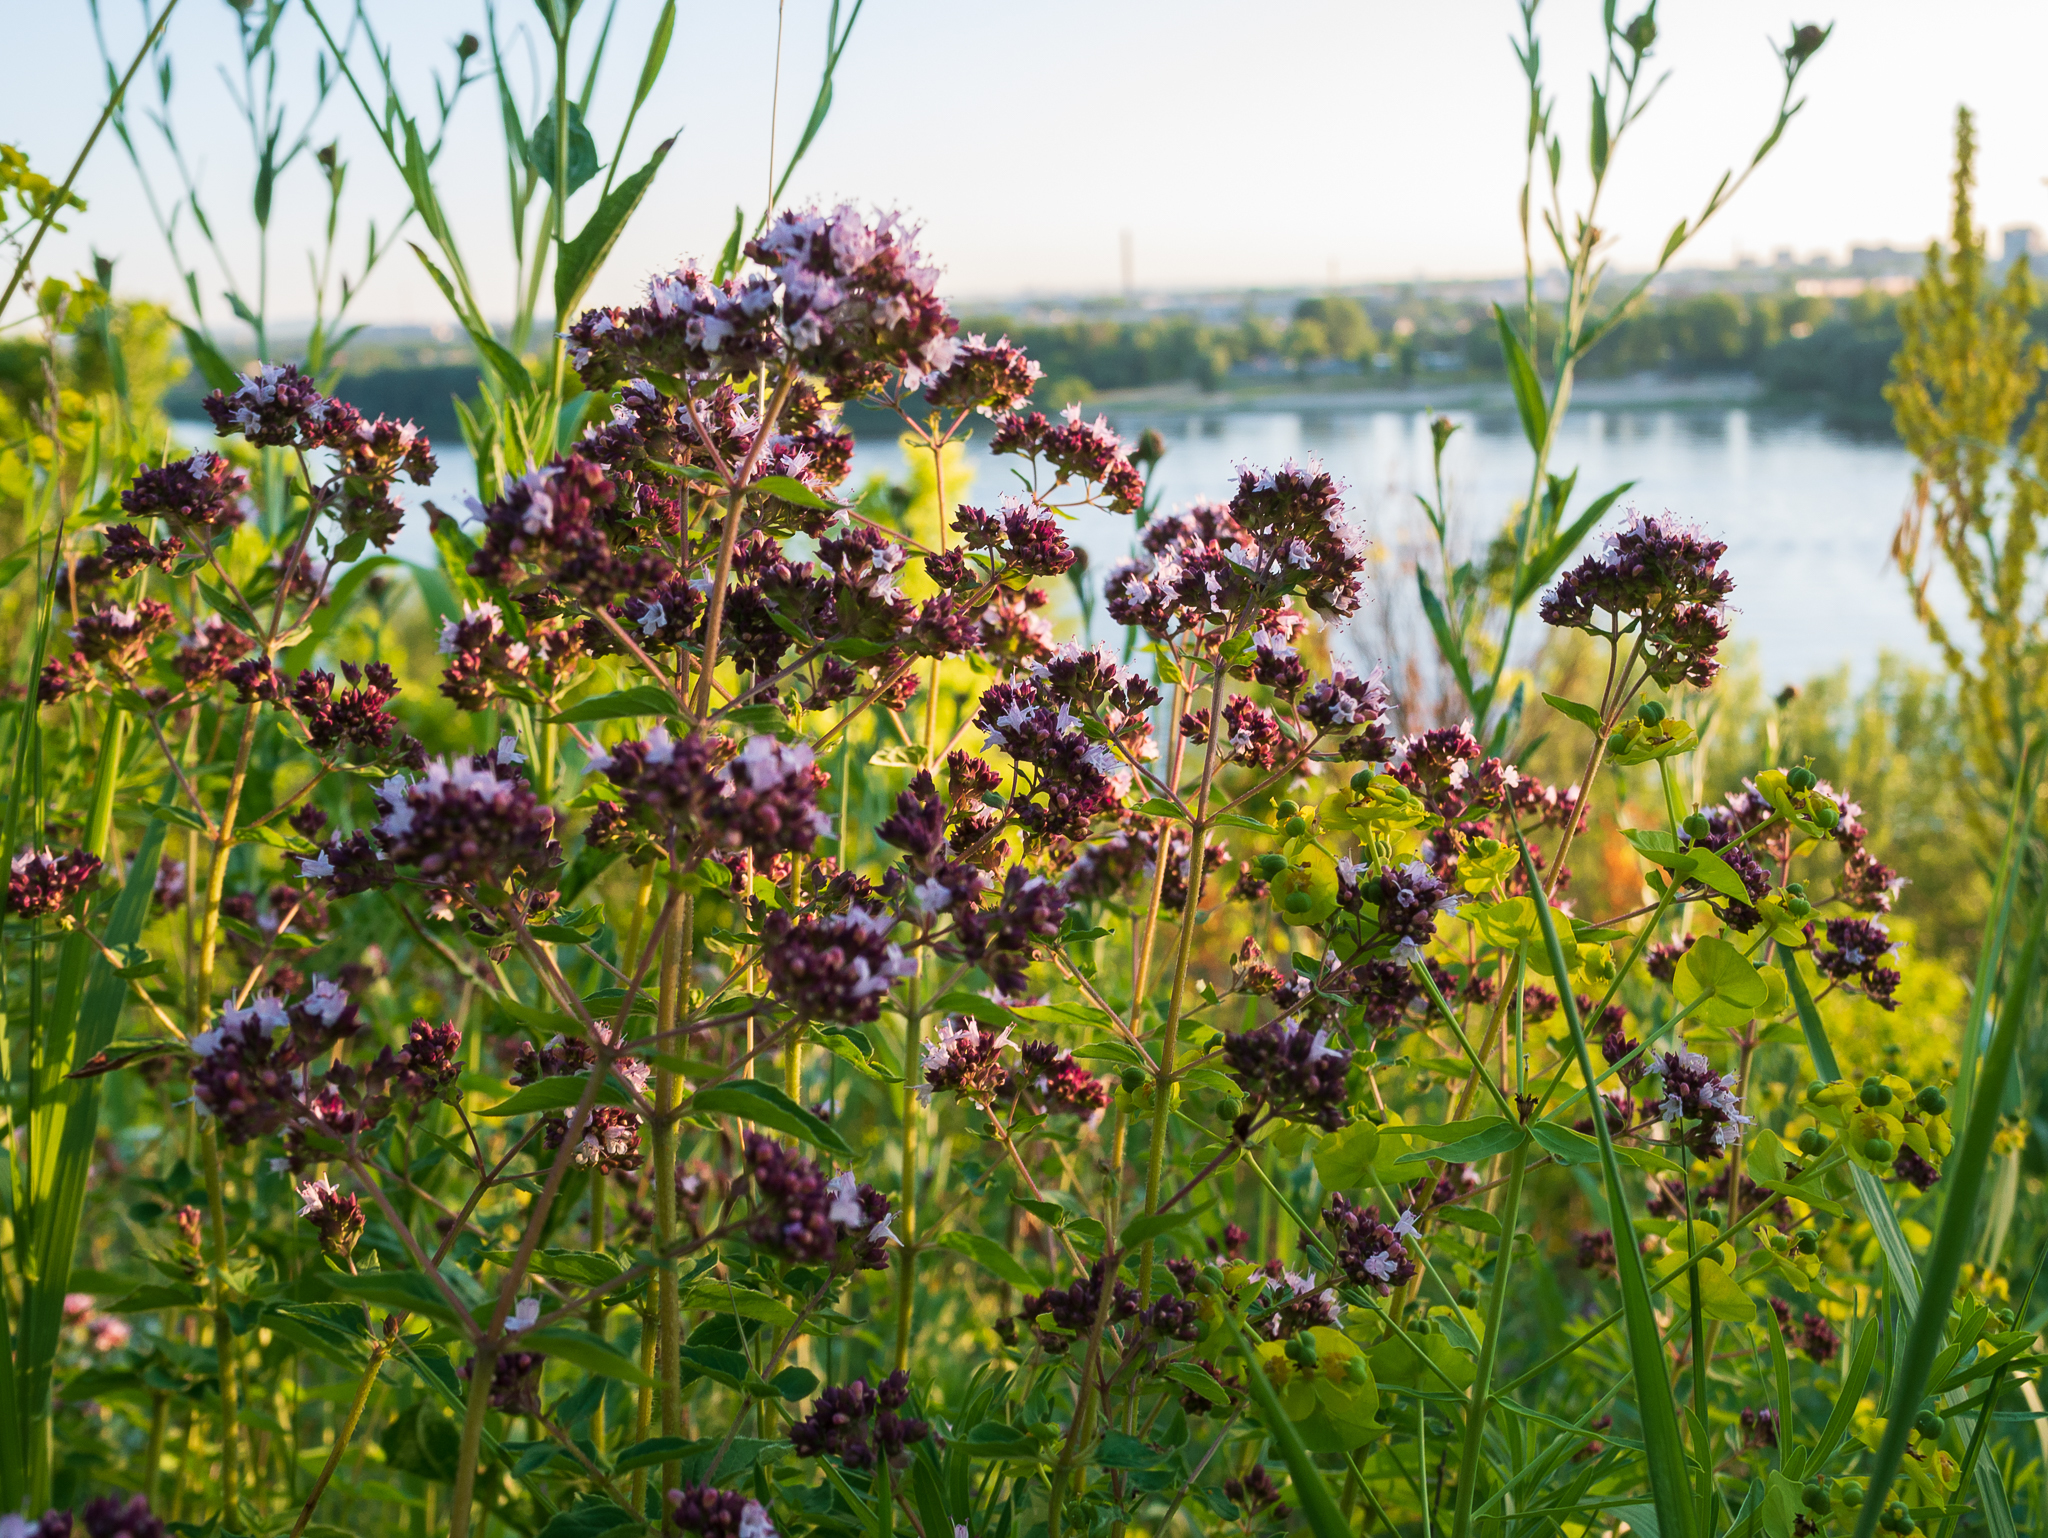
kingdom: Plantae
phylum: Tracheophyta
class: Magnoliopsida
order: Lamiales
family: Lamiaceae
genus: Origanum
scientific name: Origanum vulgare
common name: Wild marjoram
